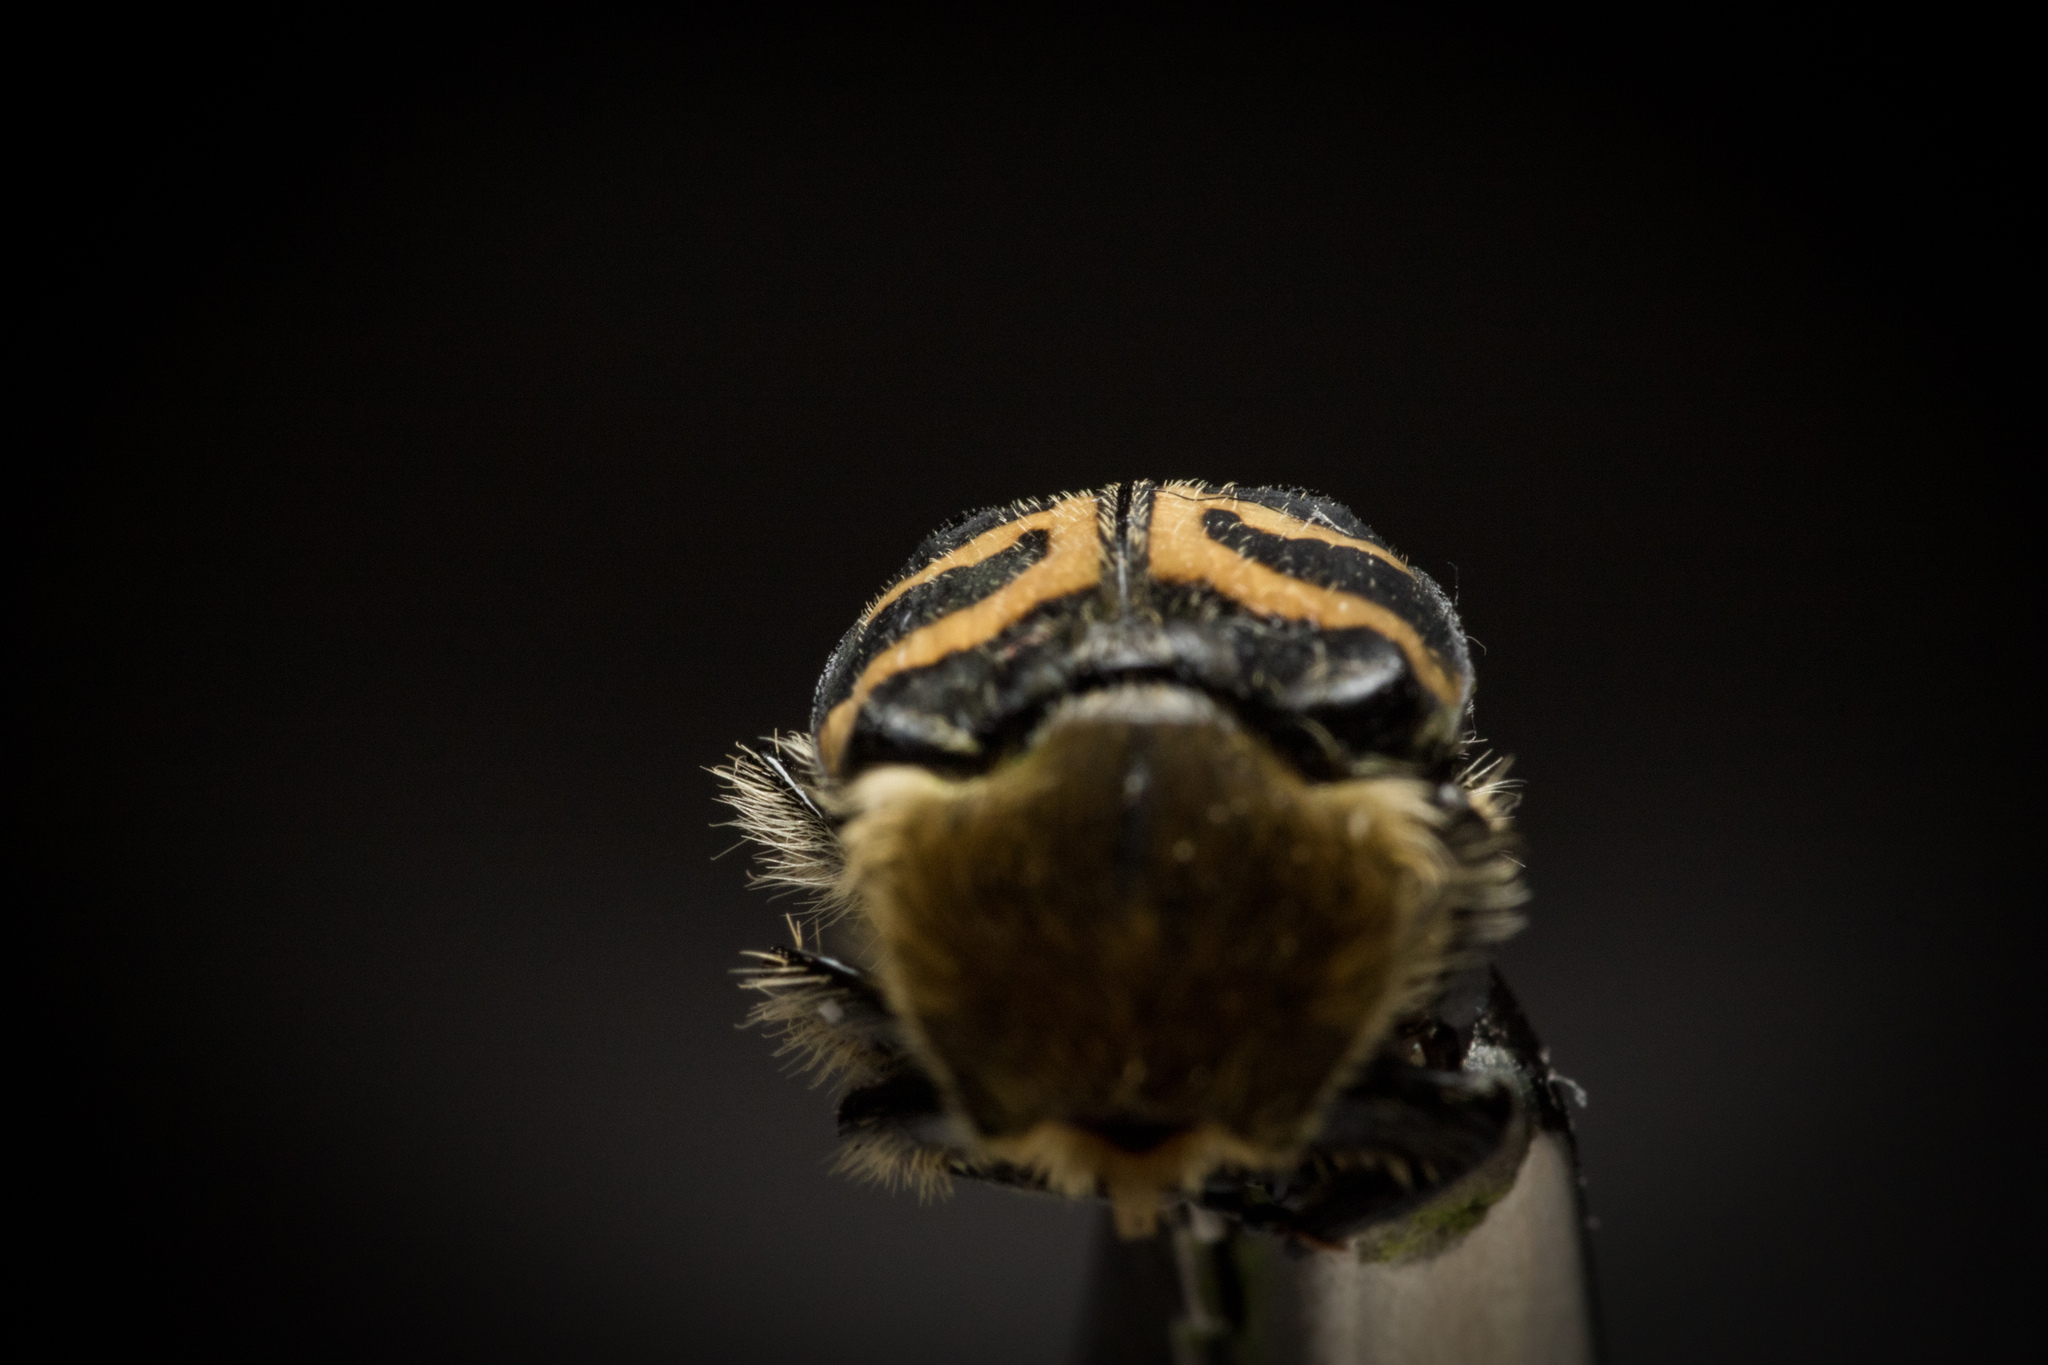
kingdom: Animalia
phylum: Arthropoda
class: Insecta
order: Coleoptera
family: Scarabaeidae
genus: Trichius
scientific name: Trichius fasciatus
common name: Bee beetle
